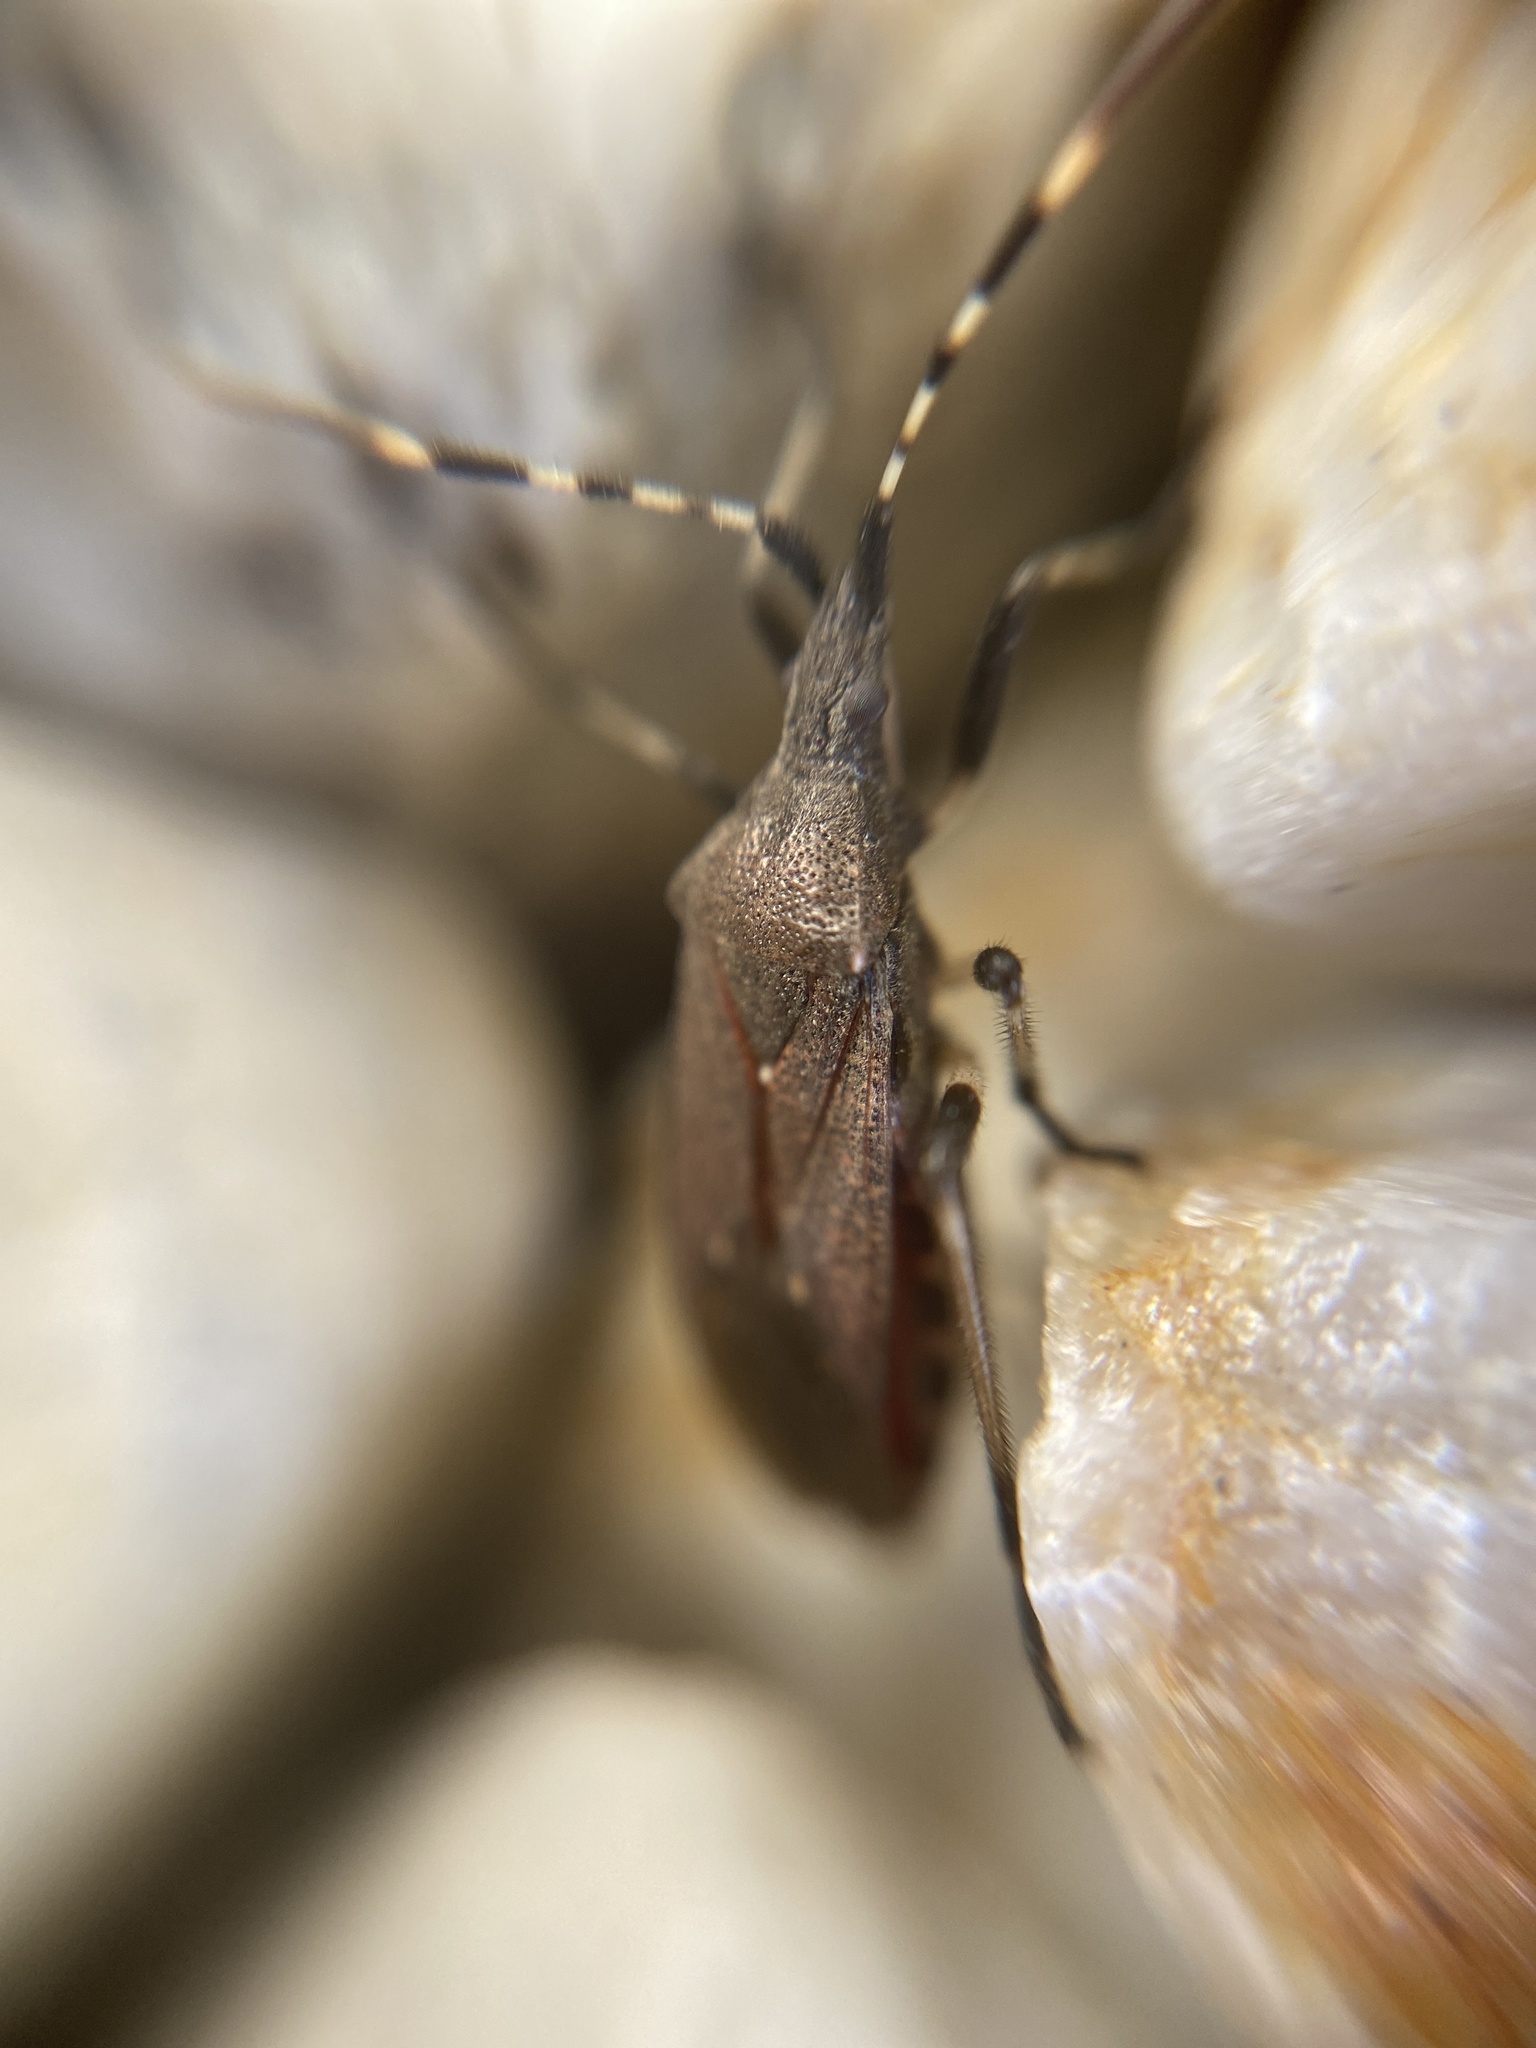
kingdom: Animalia
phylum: Arthropoda
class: Insecta
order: Hemiptera
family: Stenocephalidae
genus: Dicranocephalus
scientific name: Dicranocephalus agilis
